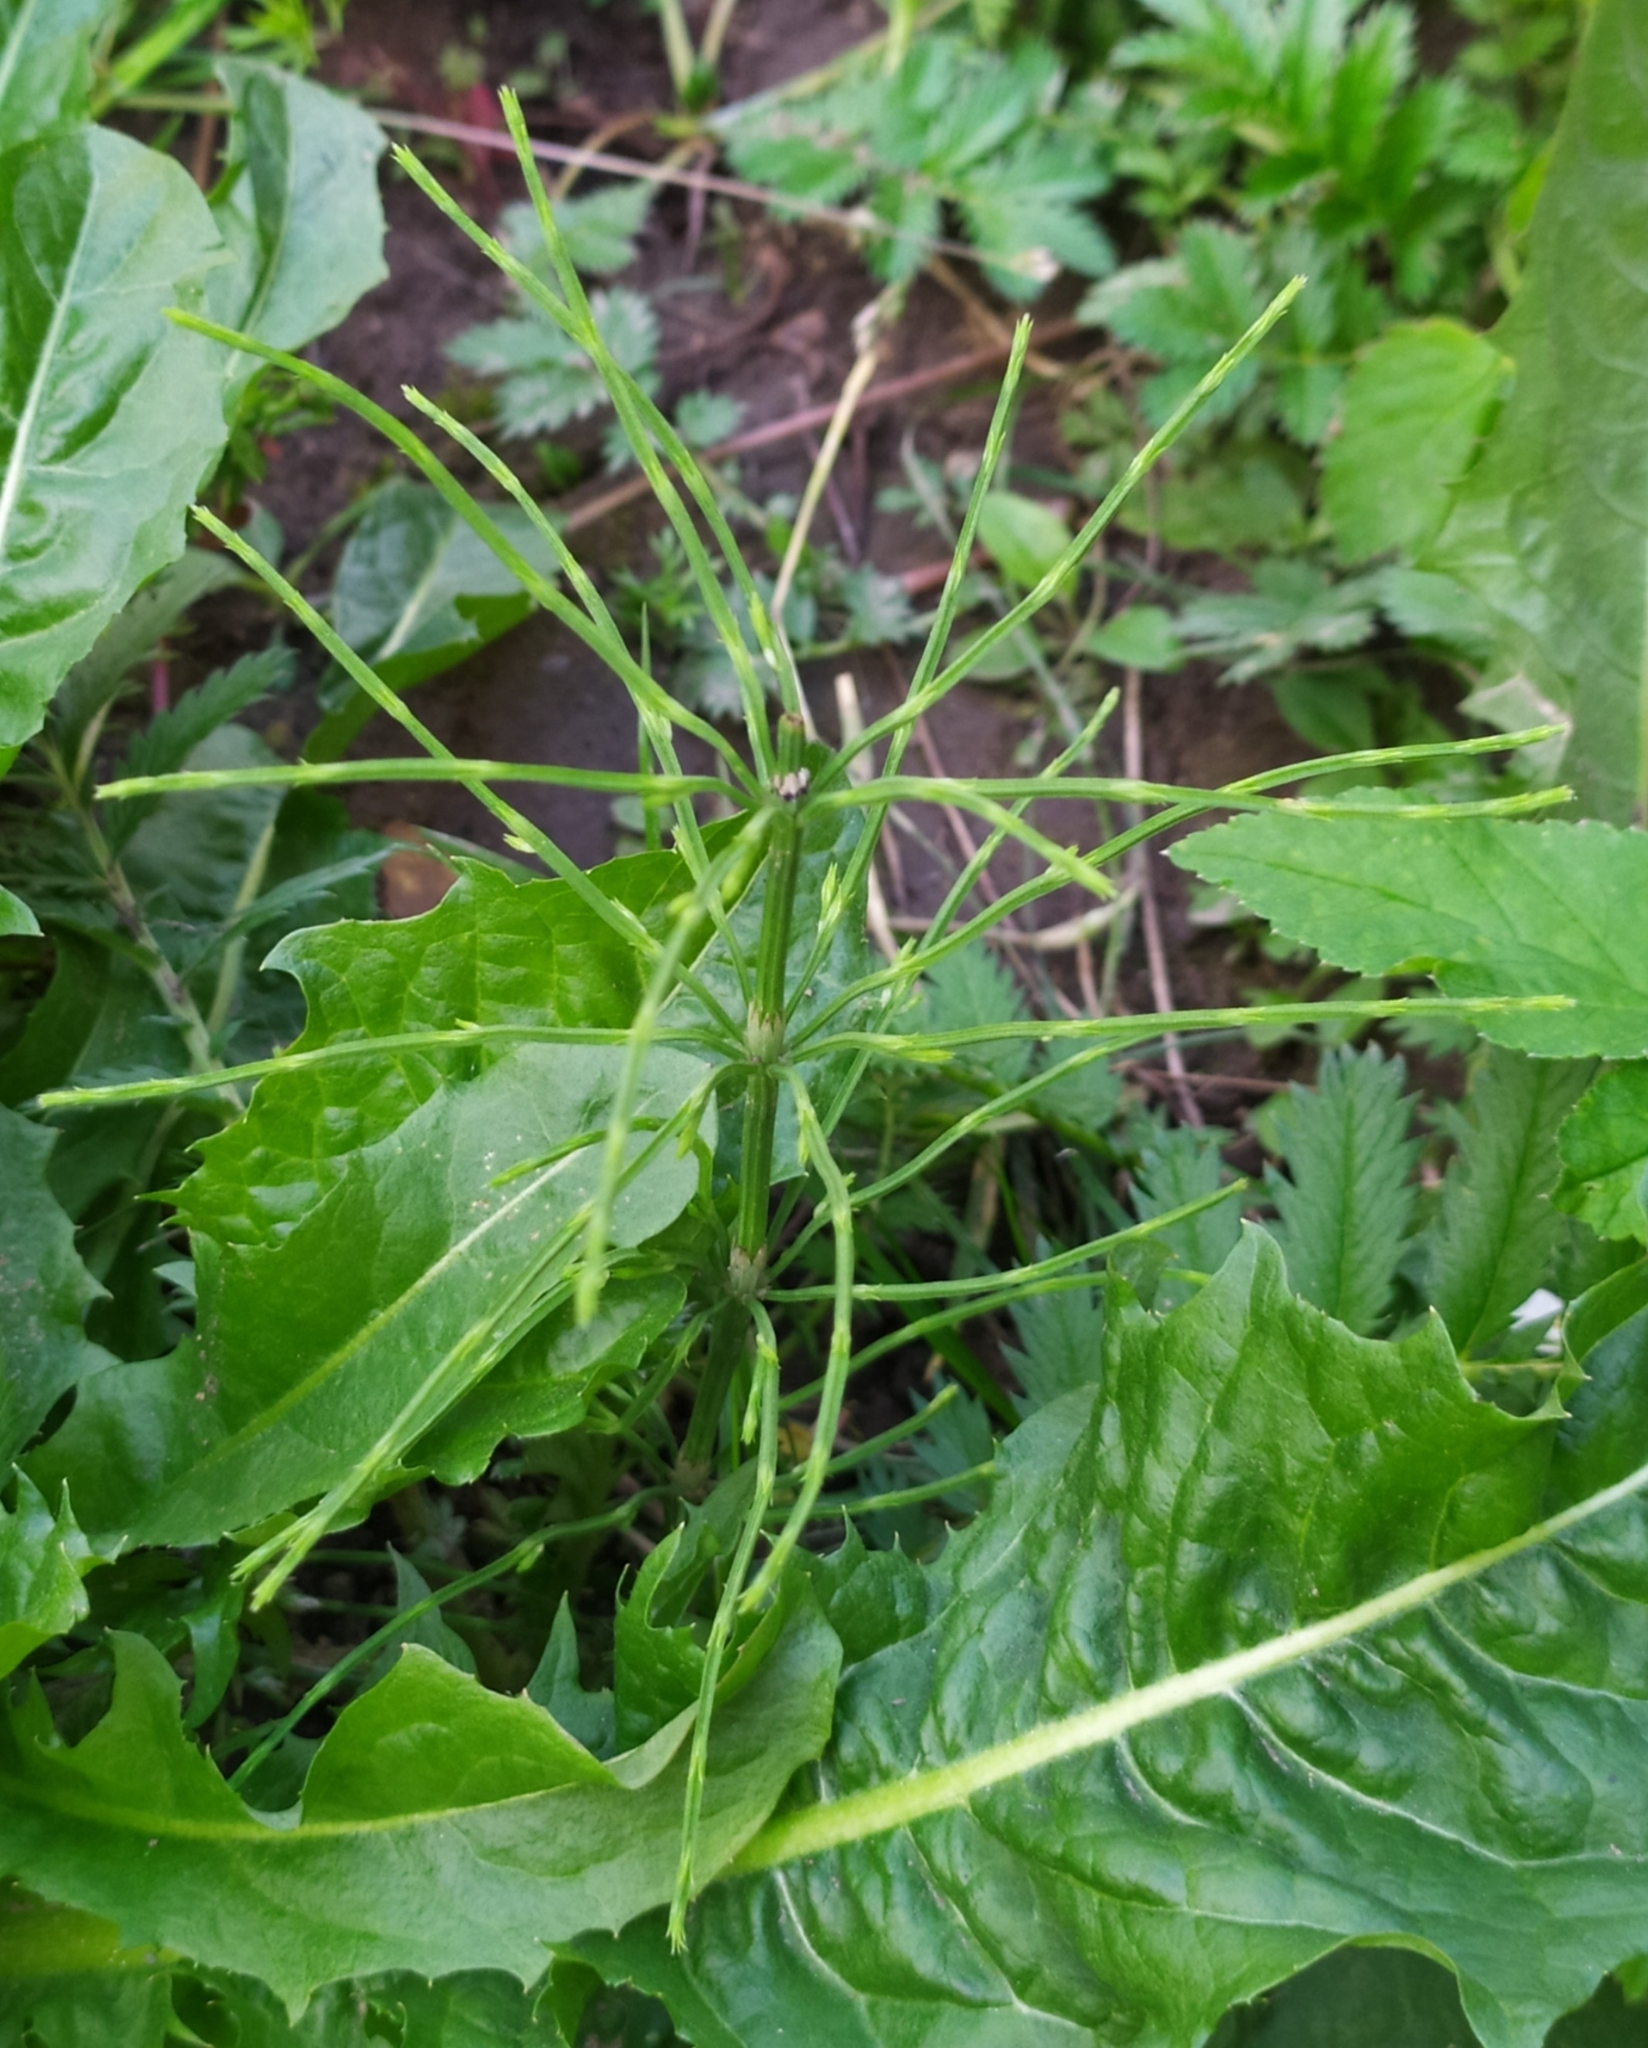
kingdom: Plantae
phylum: Tracheophyta
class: Polypodiopsida
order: Equisetales
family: Equisetaceae
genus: Equisetum
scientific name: Equisetum arvense
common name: Field horsetail
